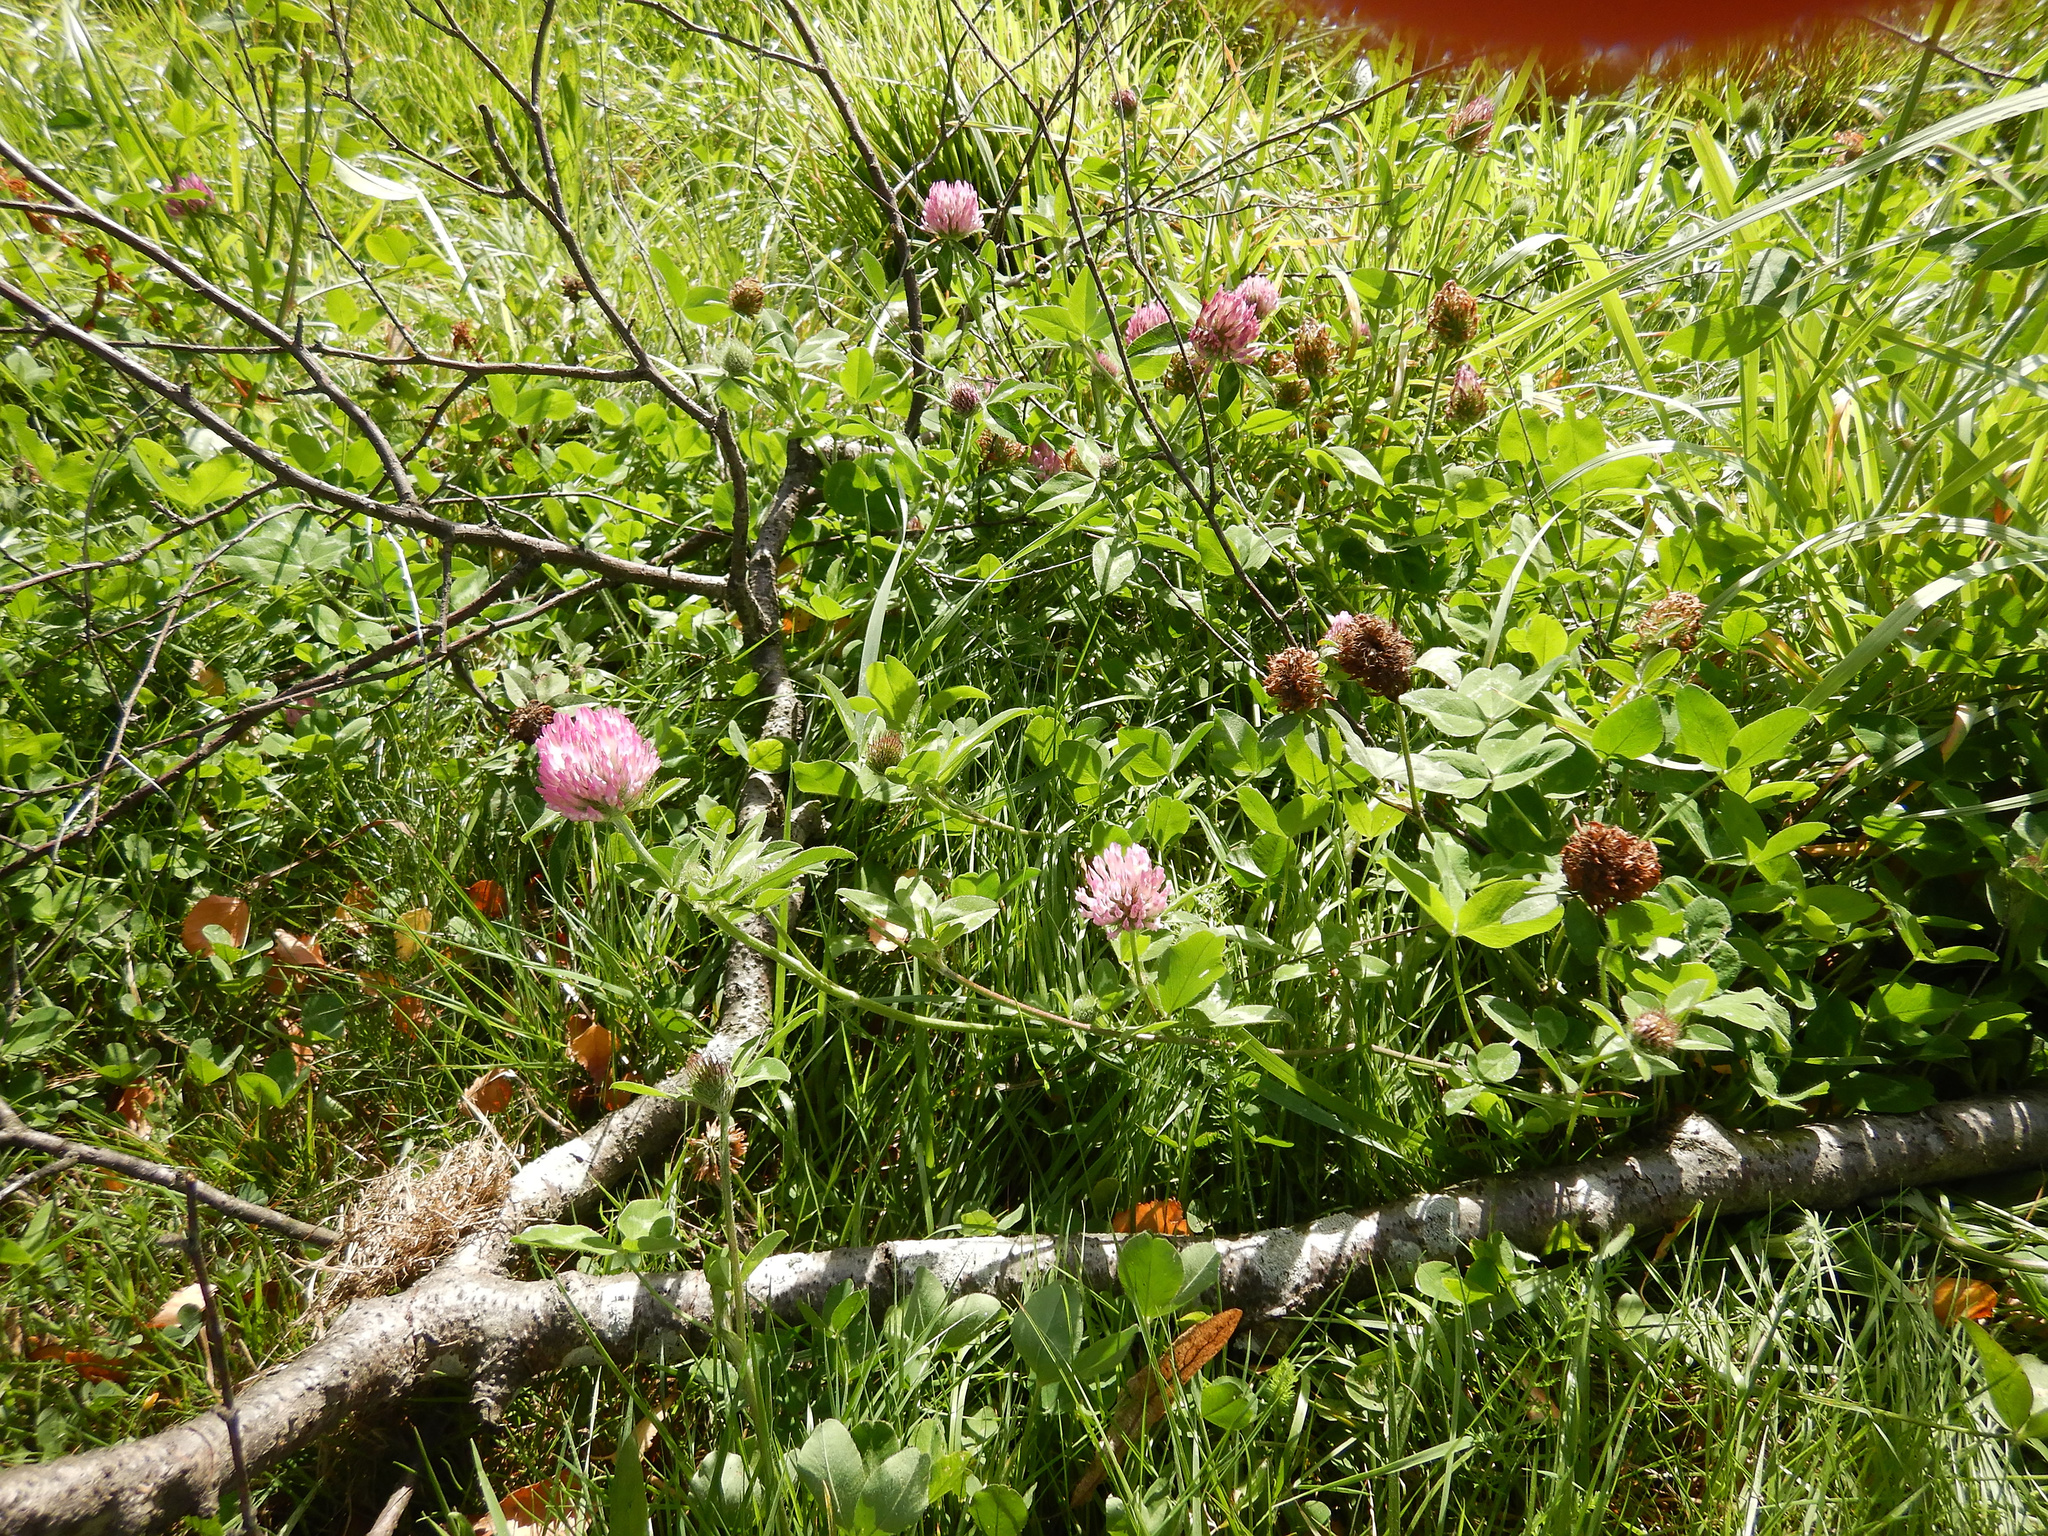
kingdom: Plantae
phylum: Tracheophyta
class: Magnoliopsida
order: Fabales
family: Fabaceae
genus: Trifolium
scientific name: Trifolium pratense
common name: Red clover
